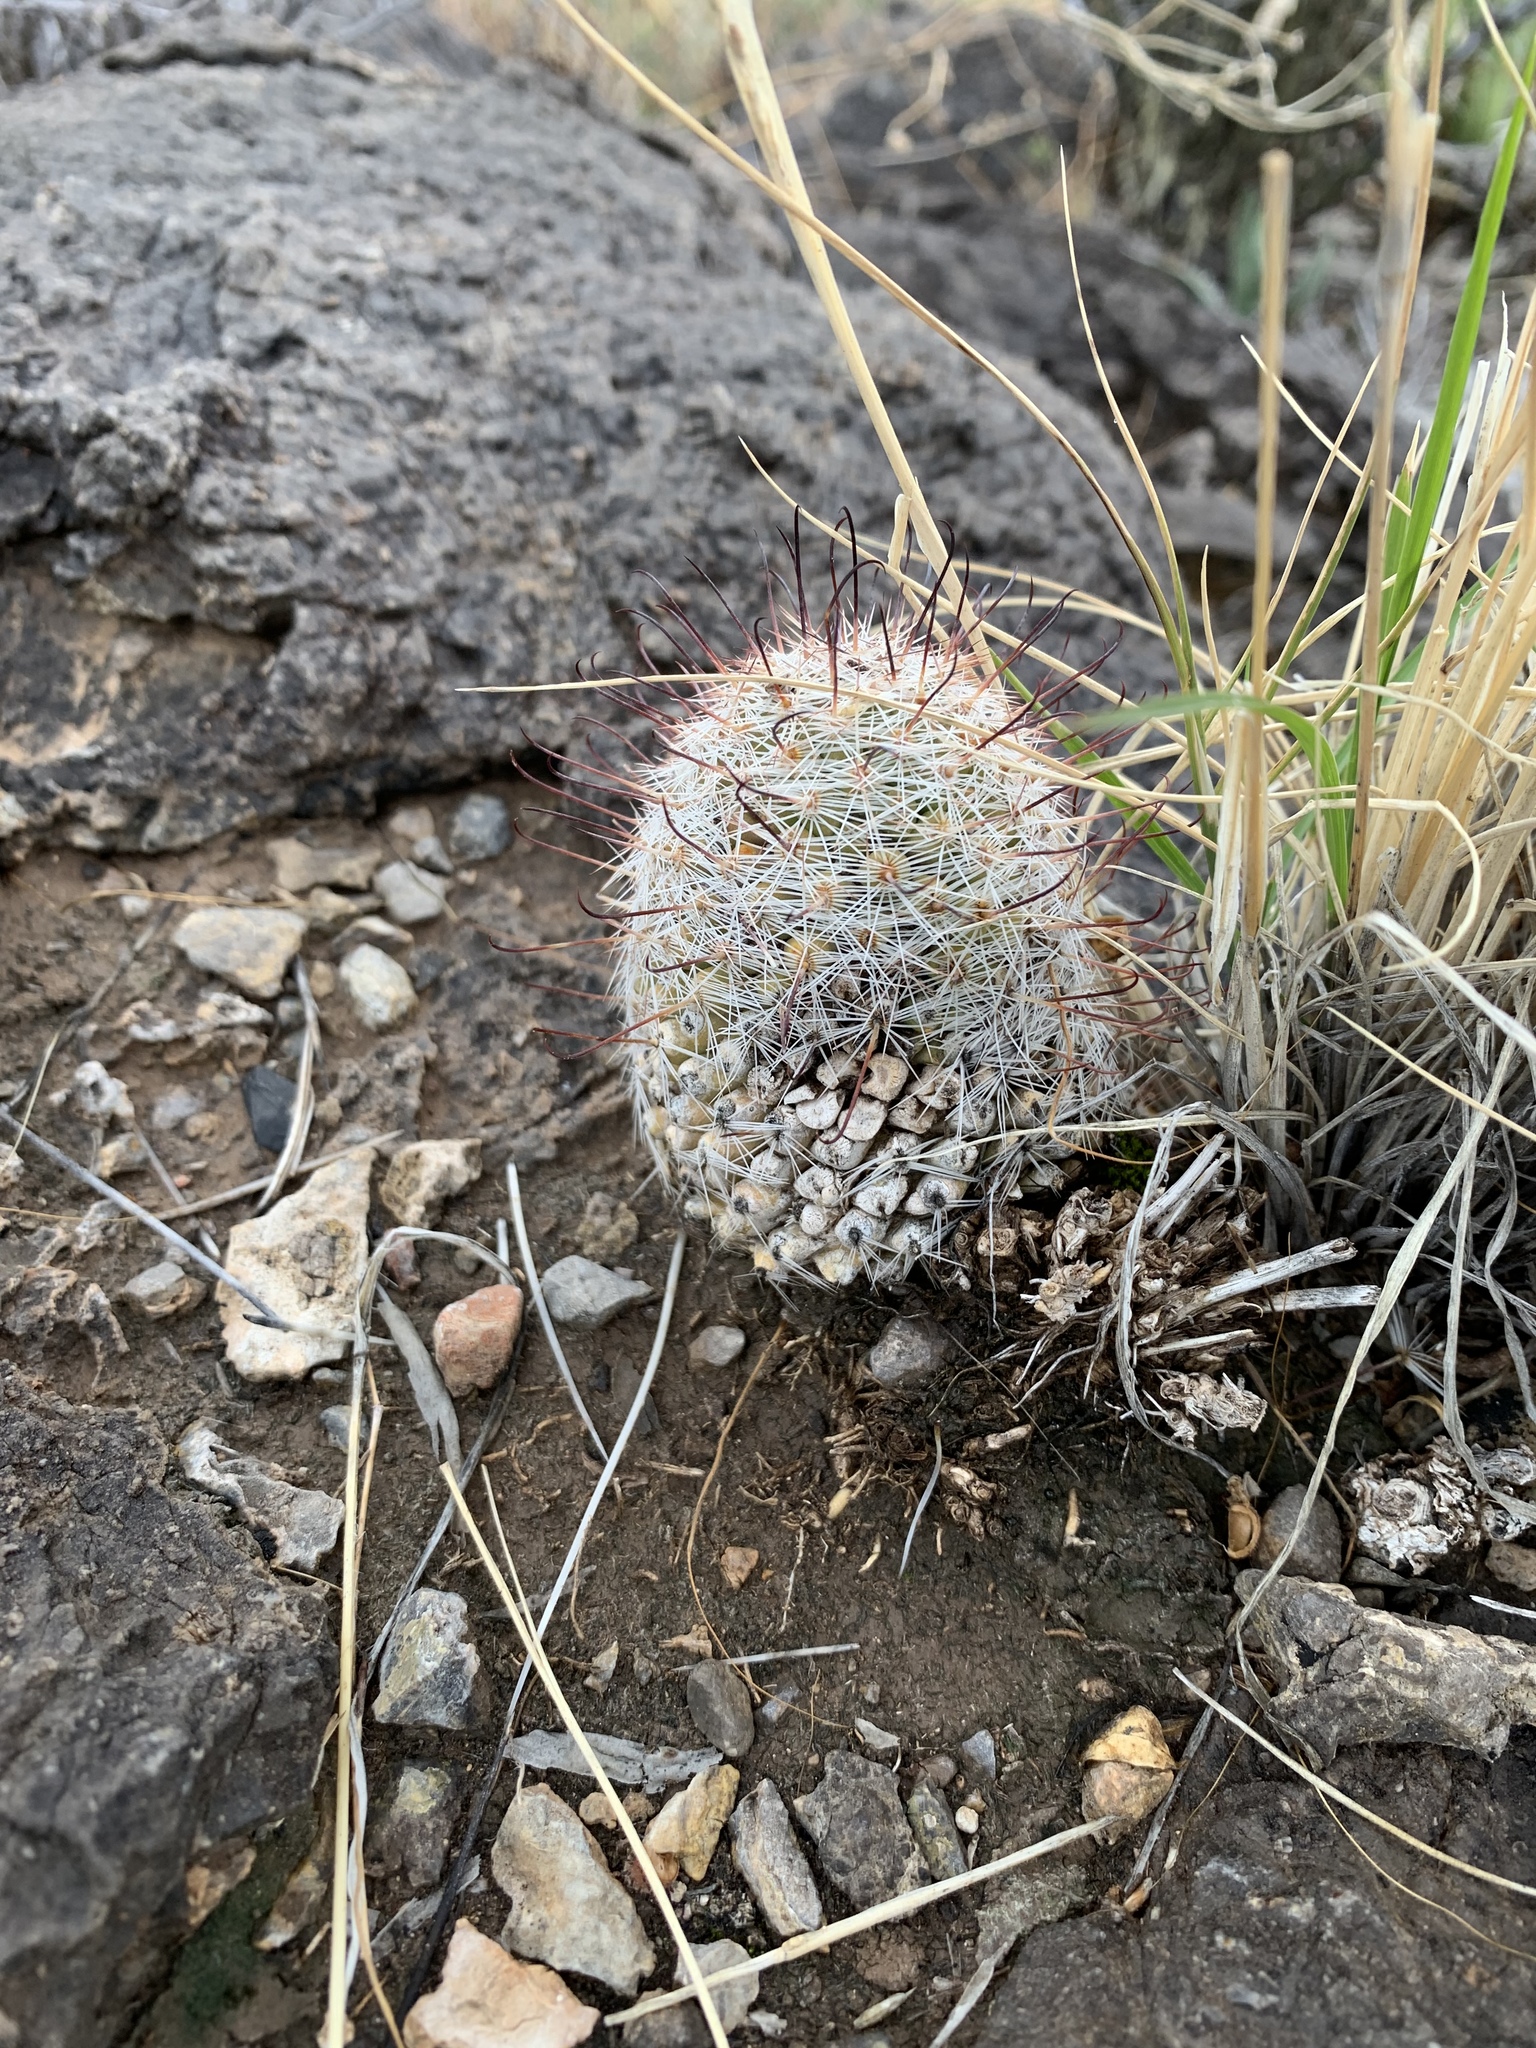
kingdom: Plantae
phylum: Tracheophyta
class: Magnoliopsida
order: Caryophyllales
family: Cactaceae
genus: Cochemiea
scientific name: Cochemiea grahamii
